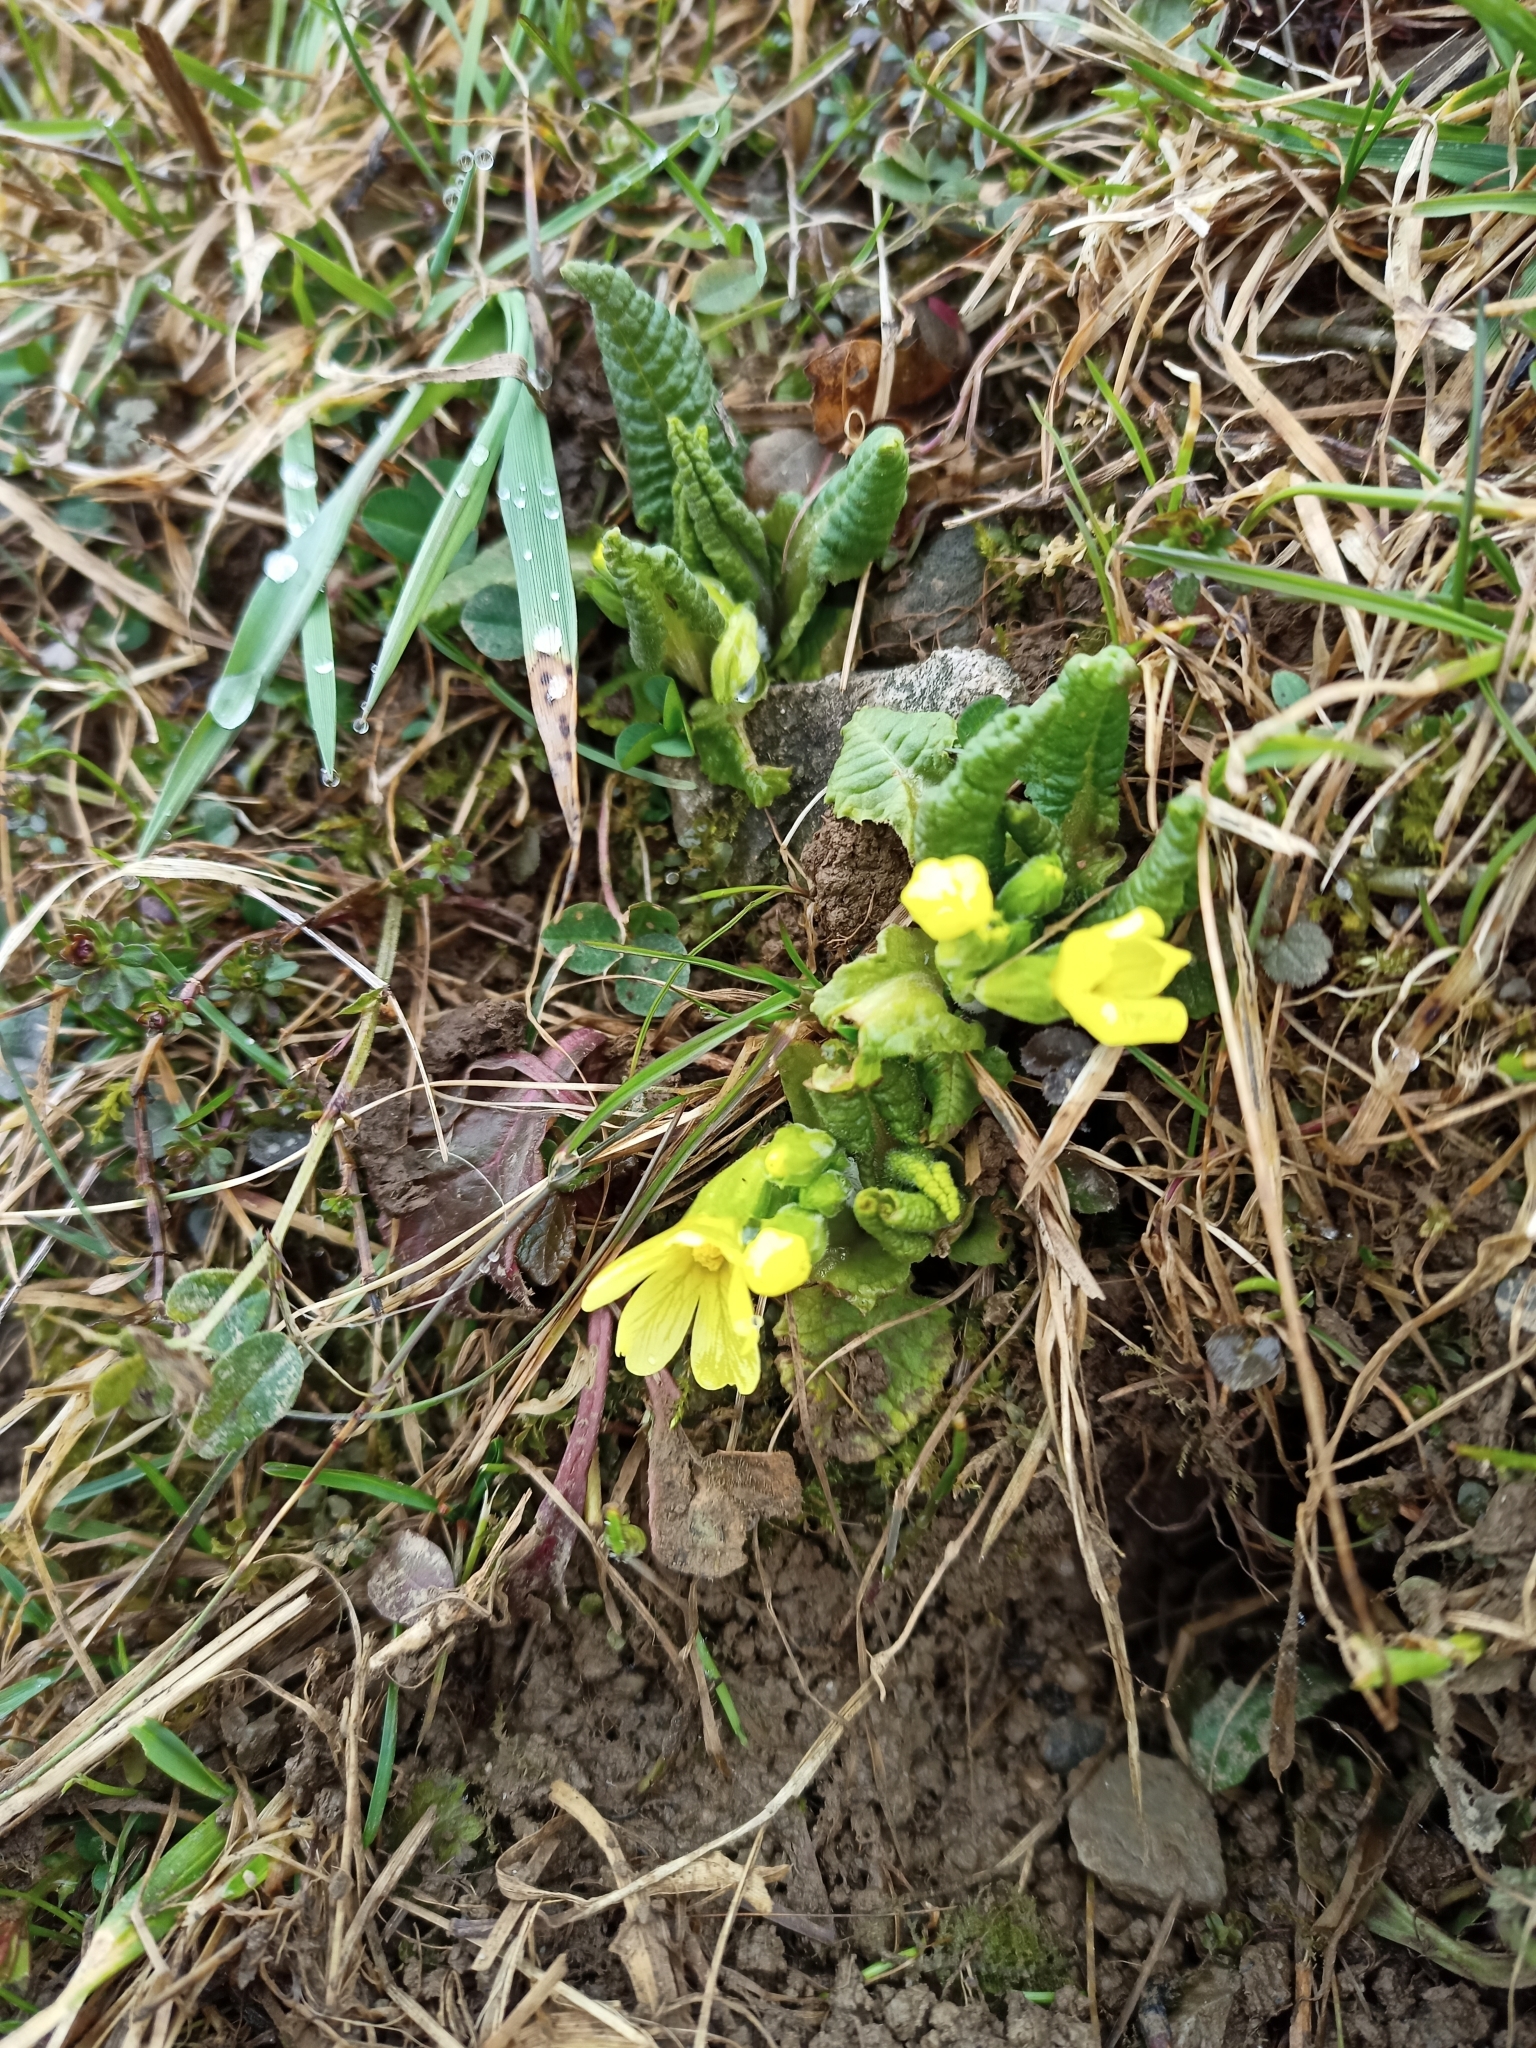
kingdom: Plantae
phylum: Tracheophyta
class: Magnoliopsida
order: Ericales
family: Primulaceae
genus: Primula
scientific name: Primula vulgaris
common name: Primrose
